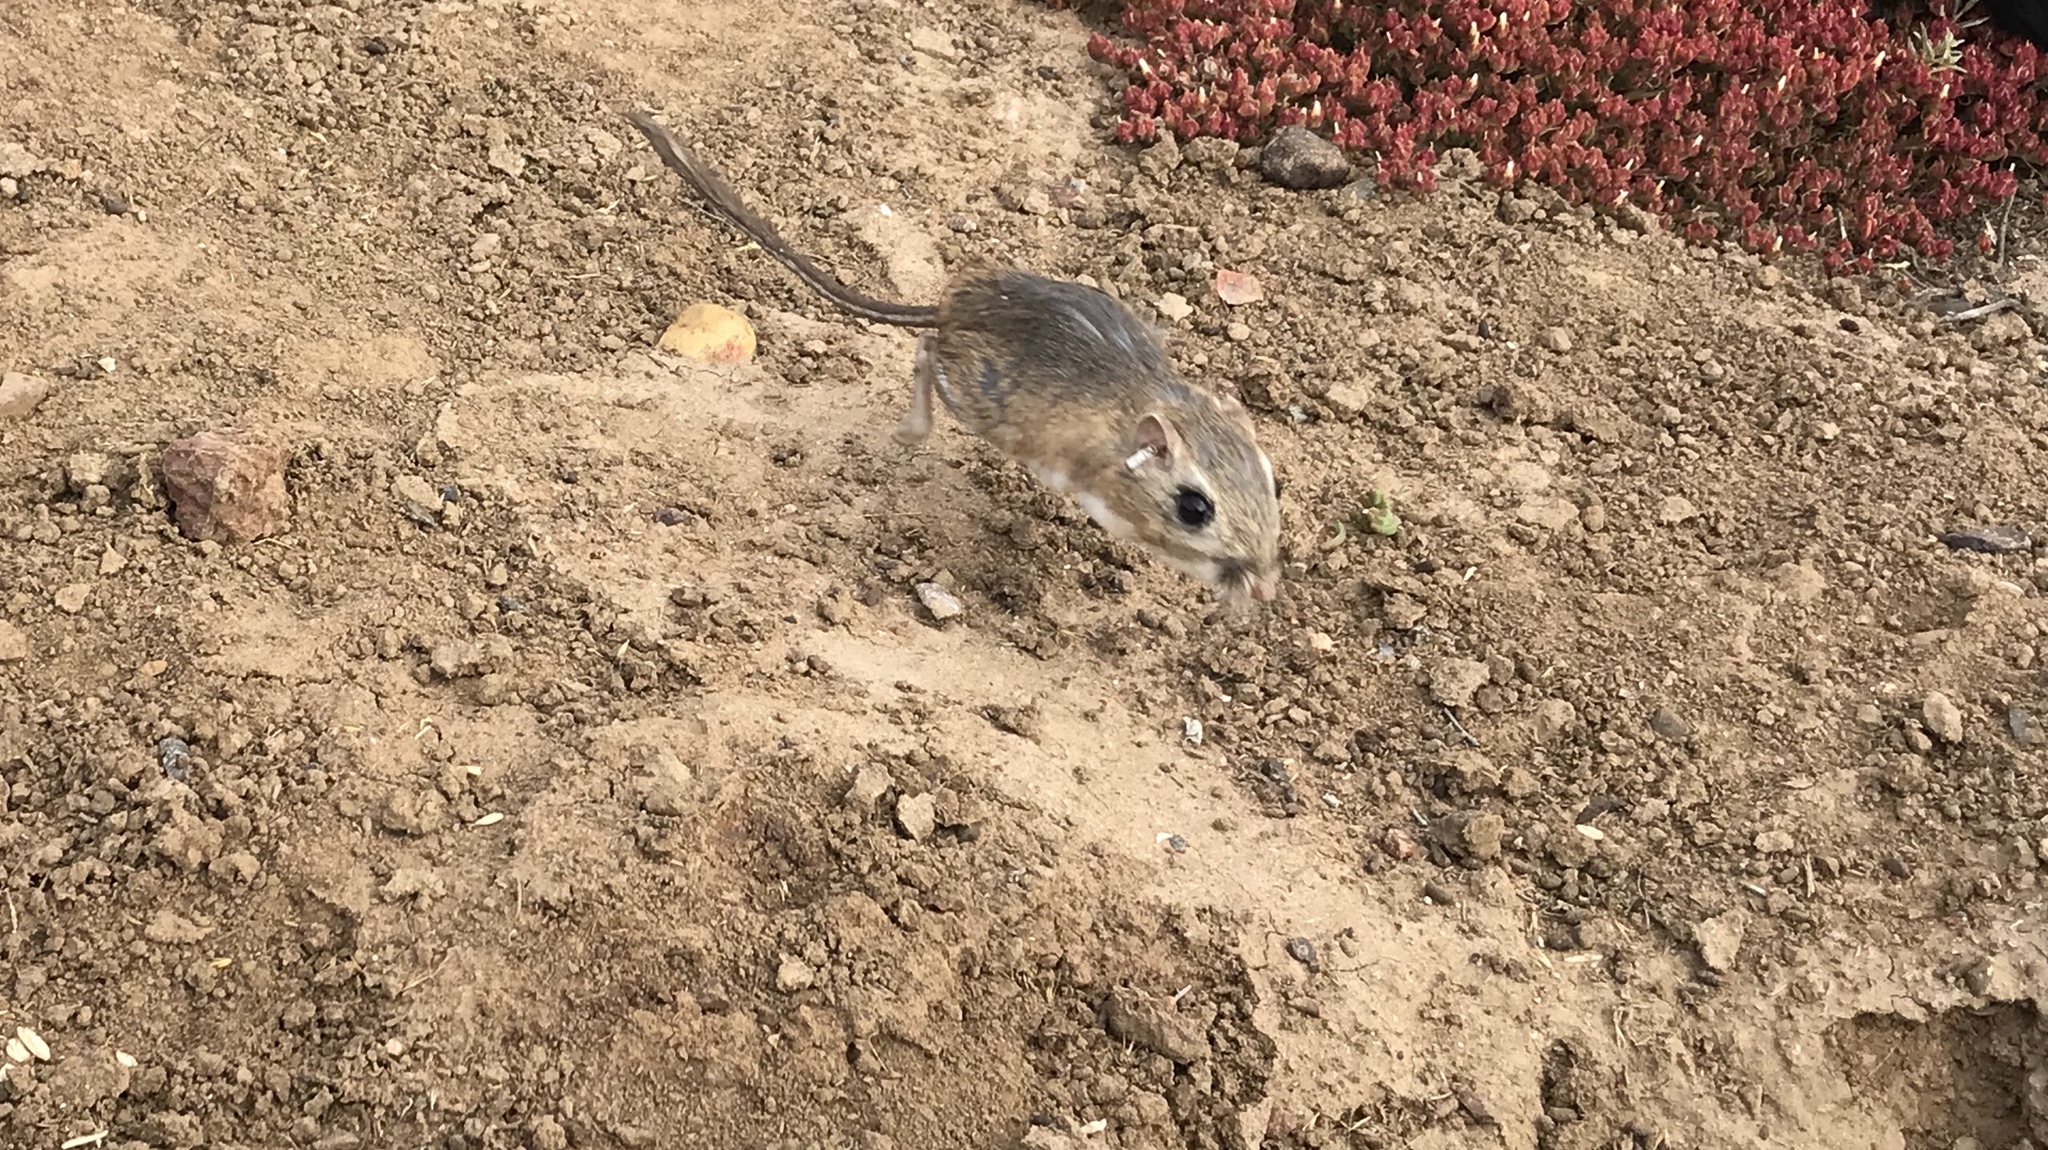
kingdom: Animalia
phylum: Chordata
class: Mammalia
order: Rodentia
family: Heteromyidae
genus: Dipodomys
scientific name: Dipodomys gravipes
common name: San quintin kangaroo rat
